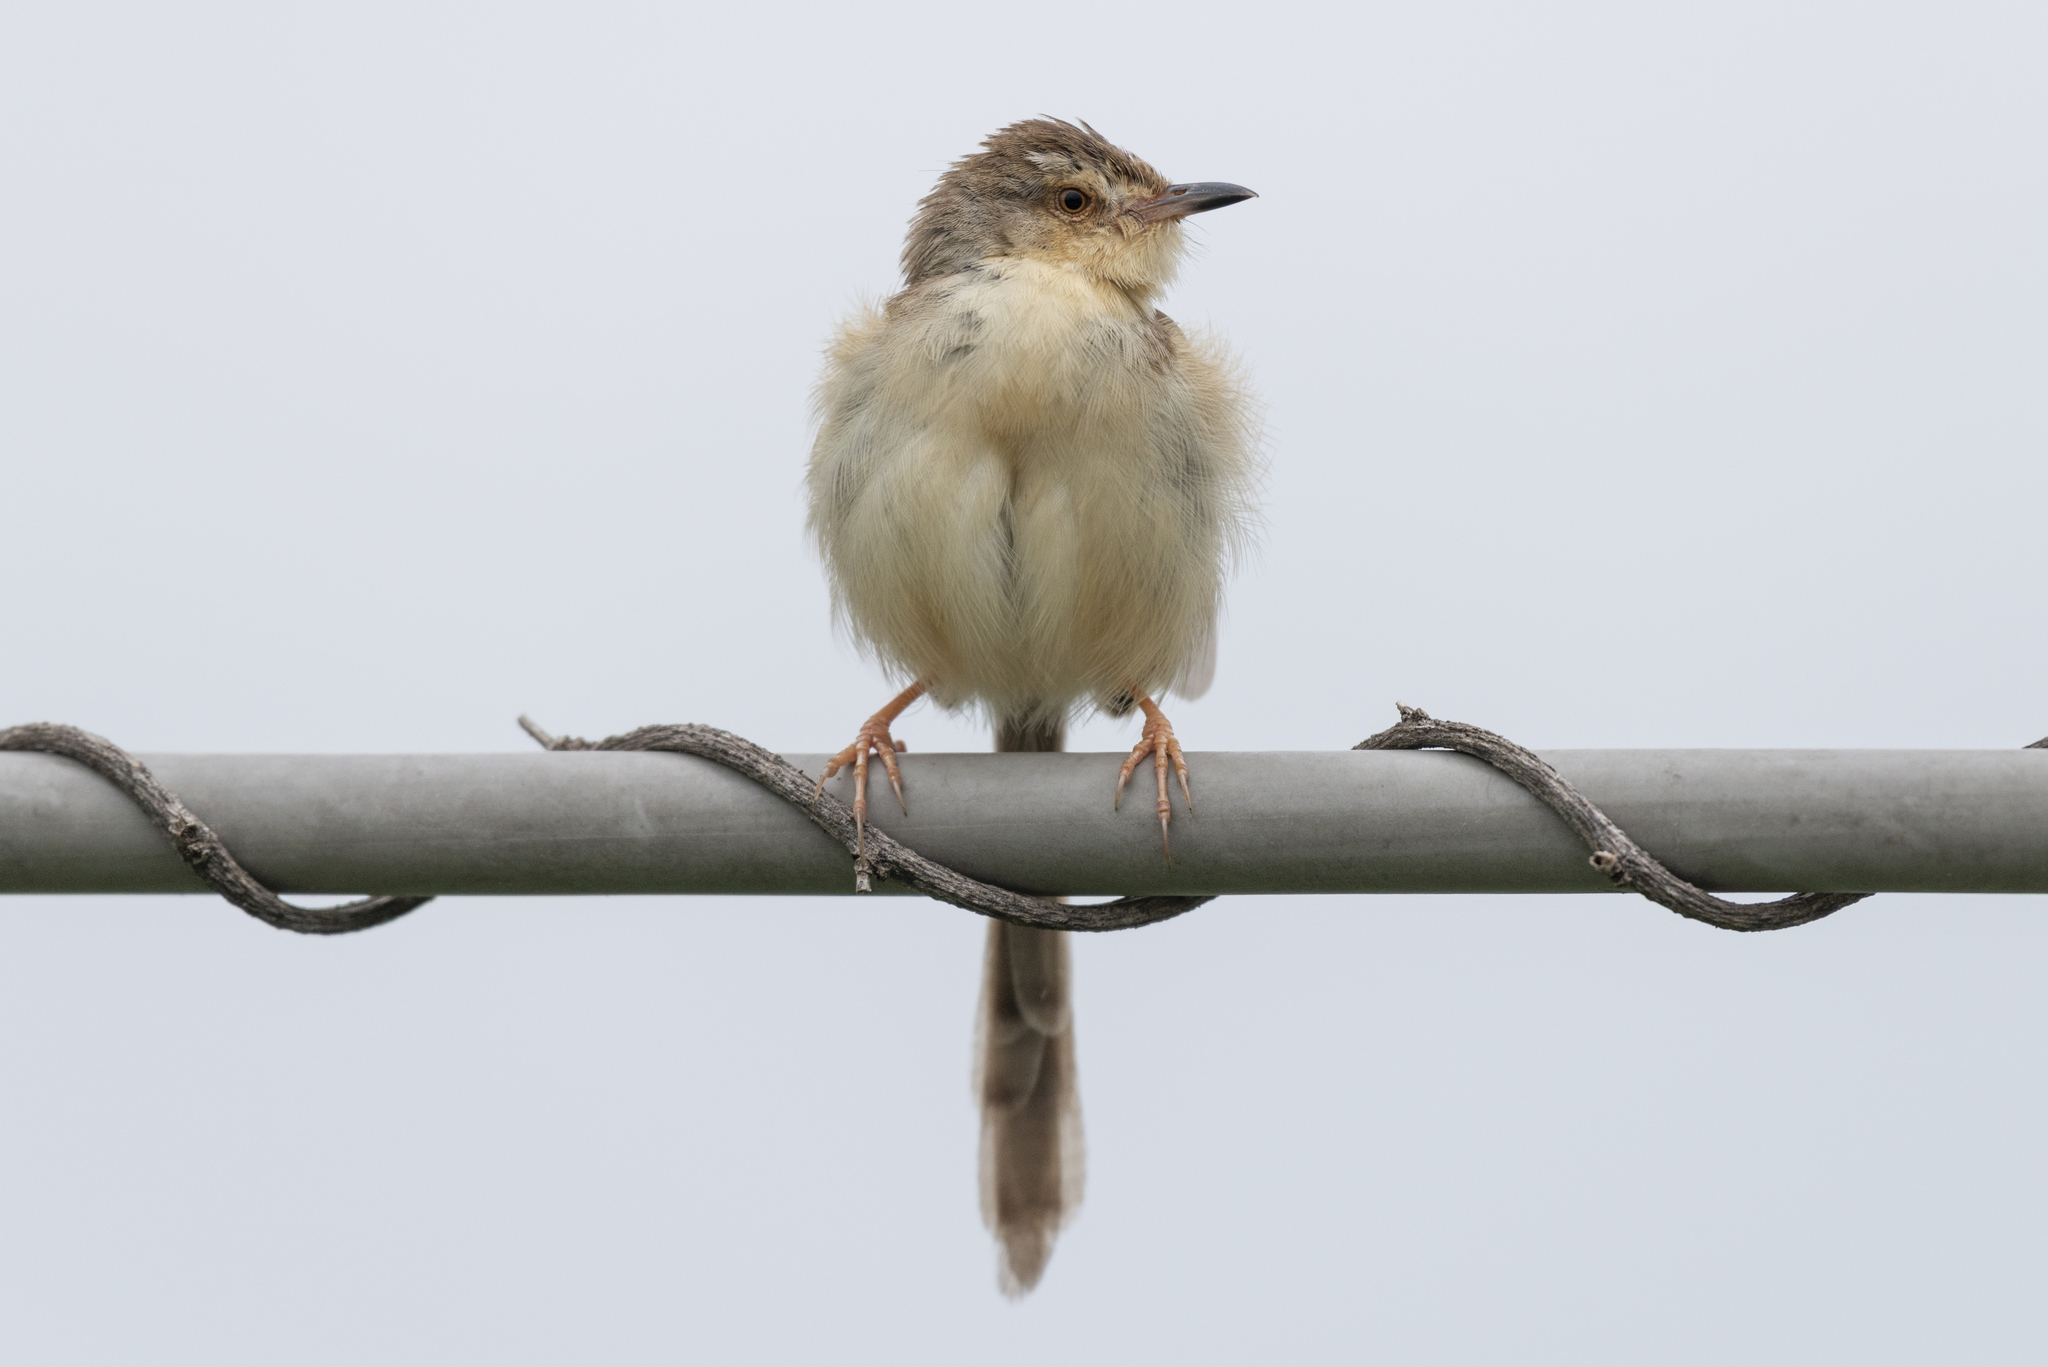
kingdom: Animalia
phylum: Chordata
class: Aves
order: Passeriformes
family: Cisticolidae
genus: Prinia
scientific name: Prinia inornata
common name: Plain prinia
